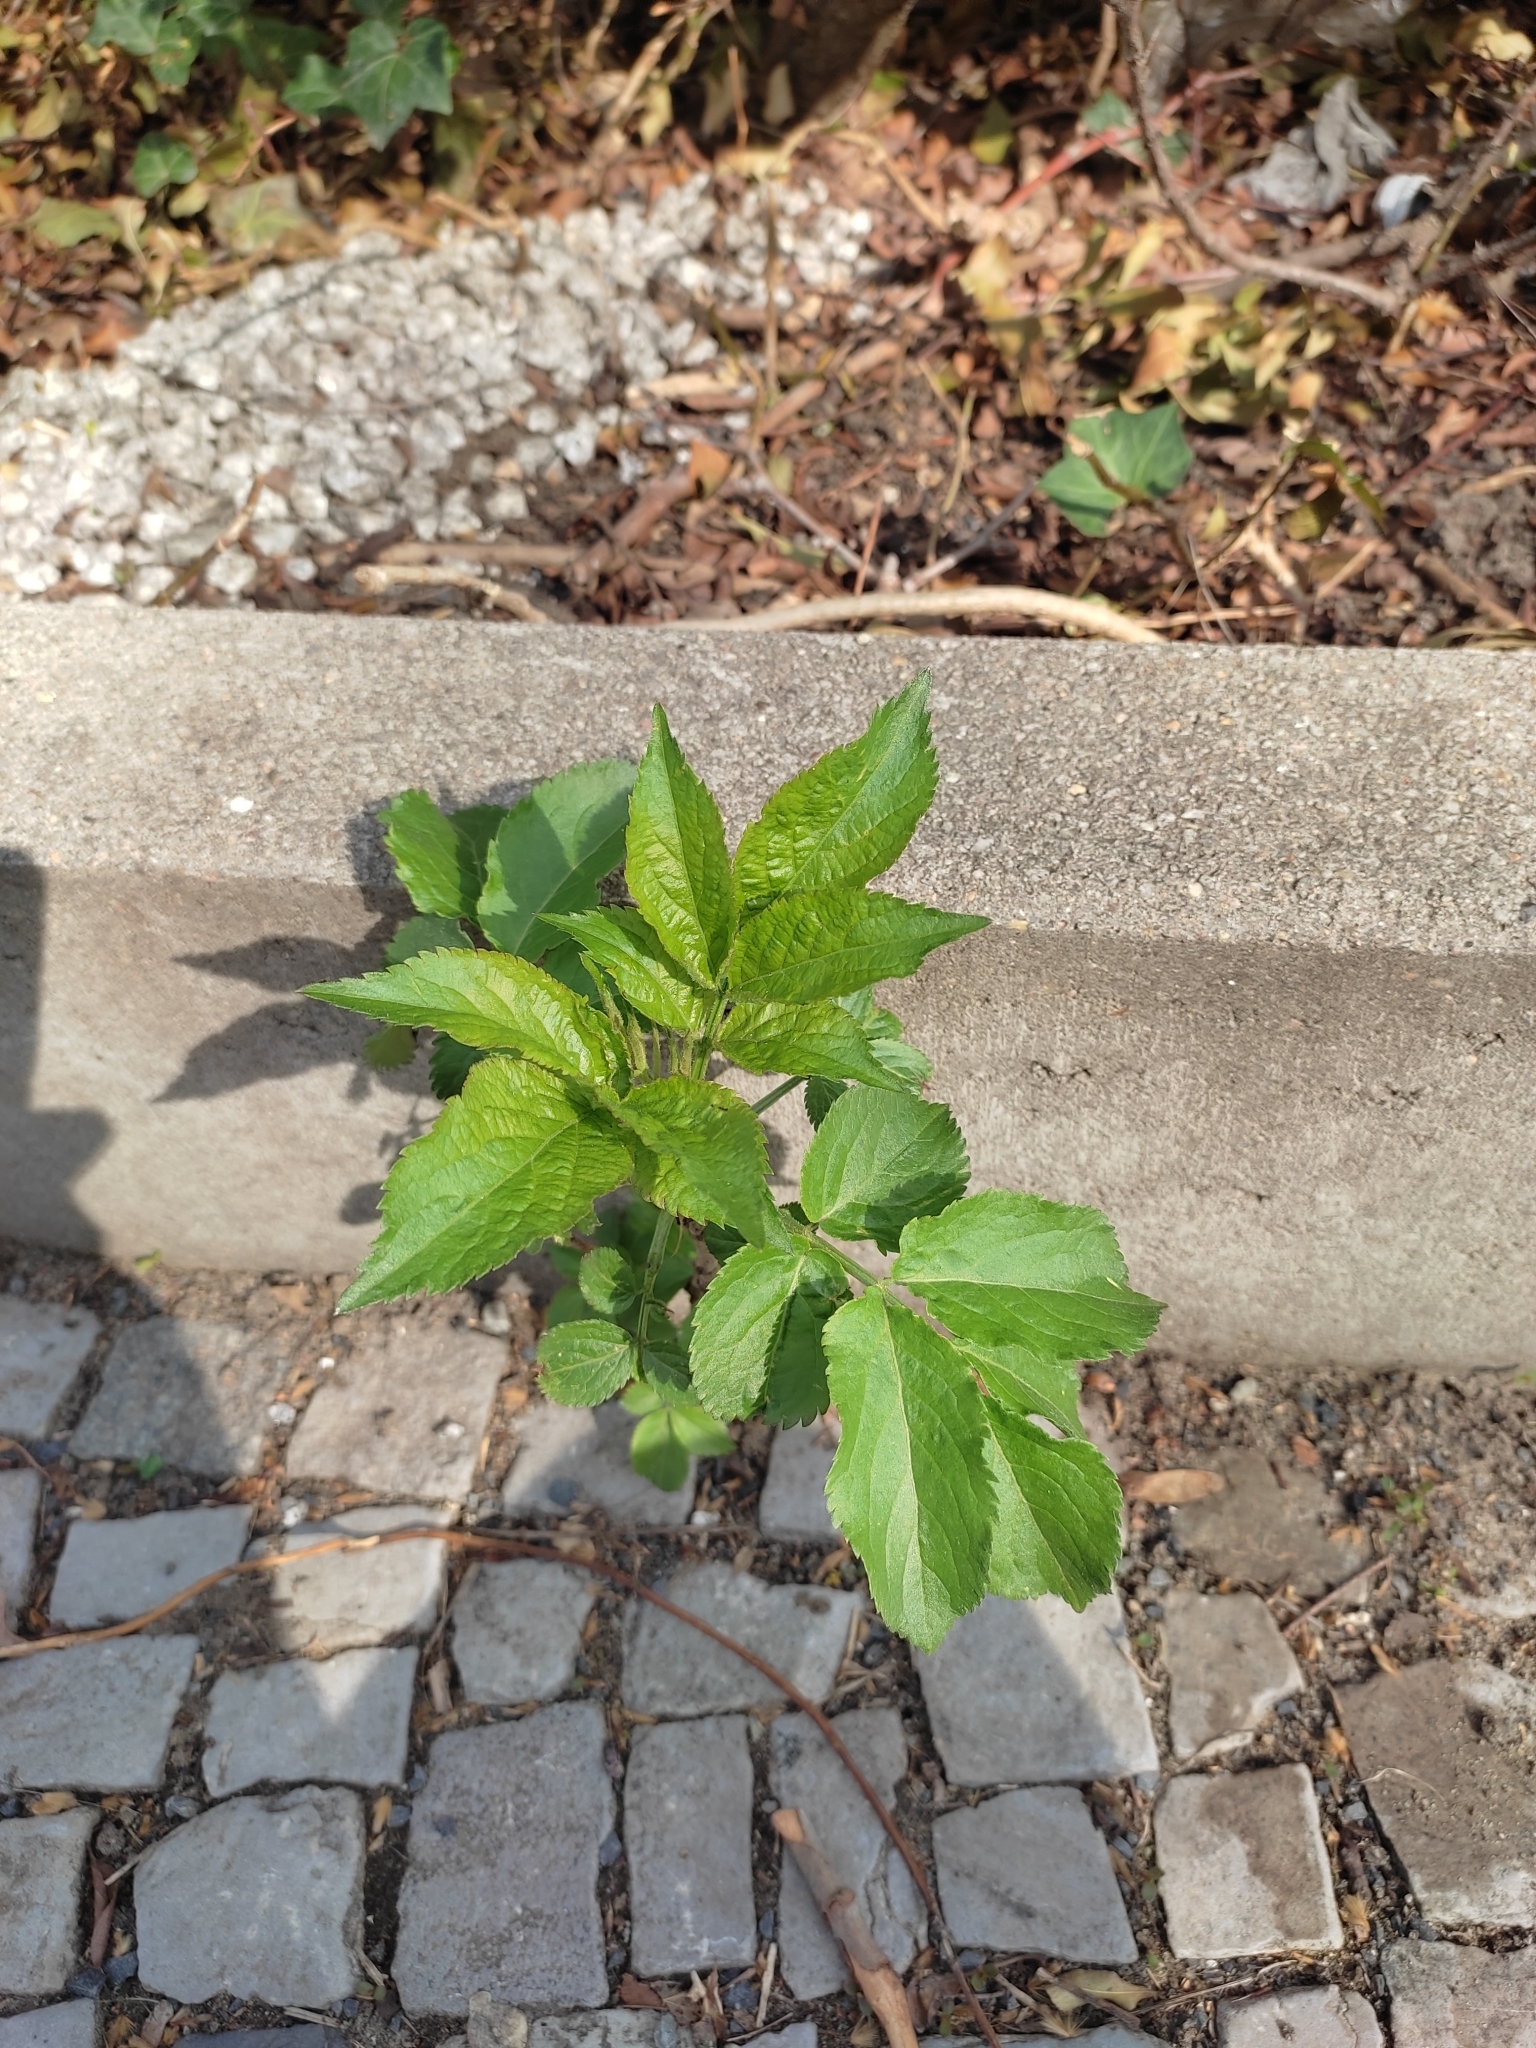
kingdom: Plantae
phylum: Tracheophyta
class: Magnoliopsida
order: Dipsacales
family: Viburnaceae
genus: Sambucus
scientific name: Sambucus nigra
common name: Elder
